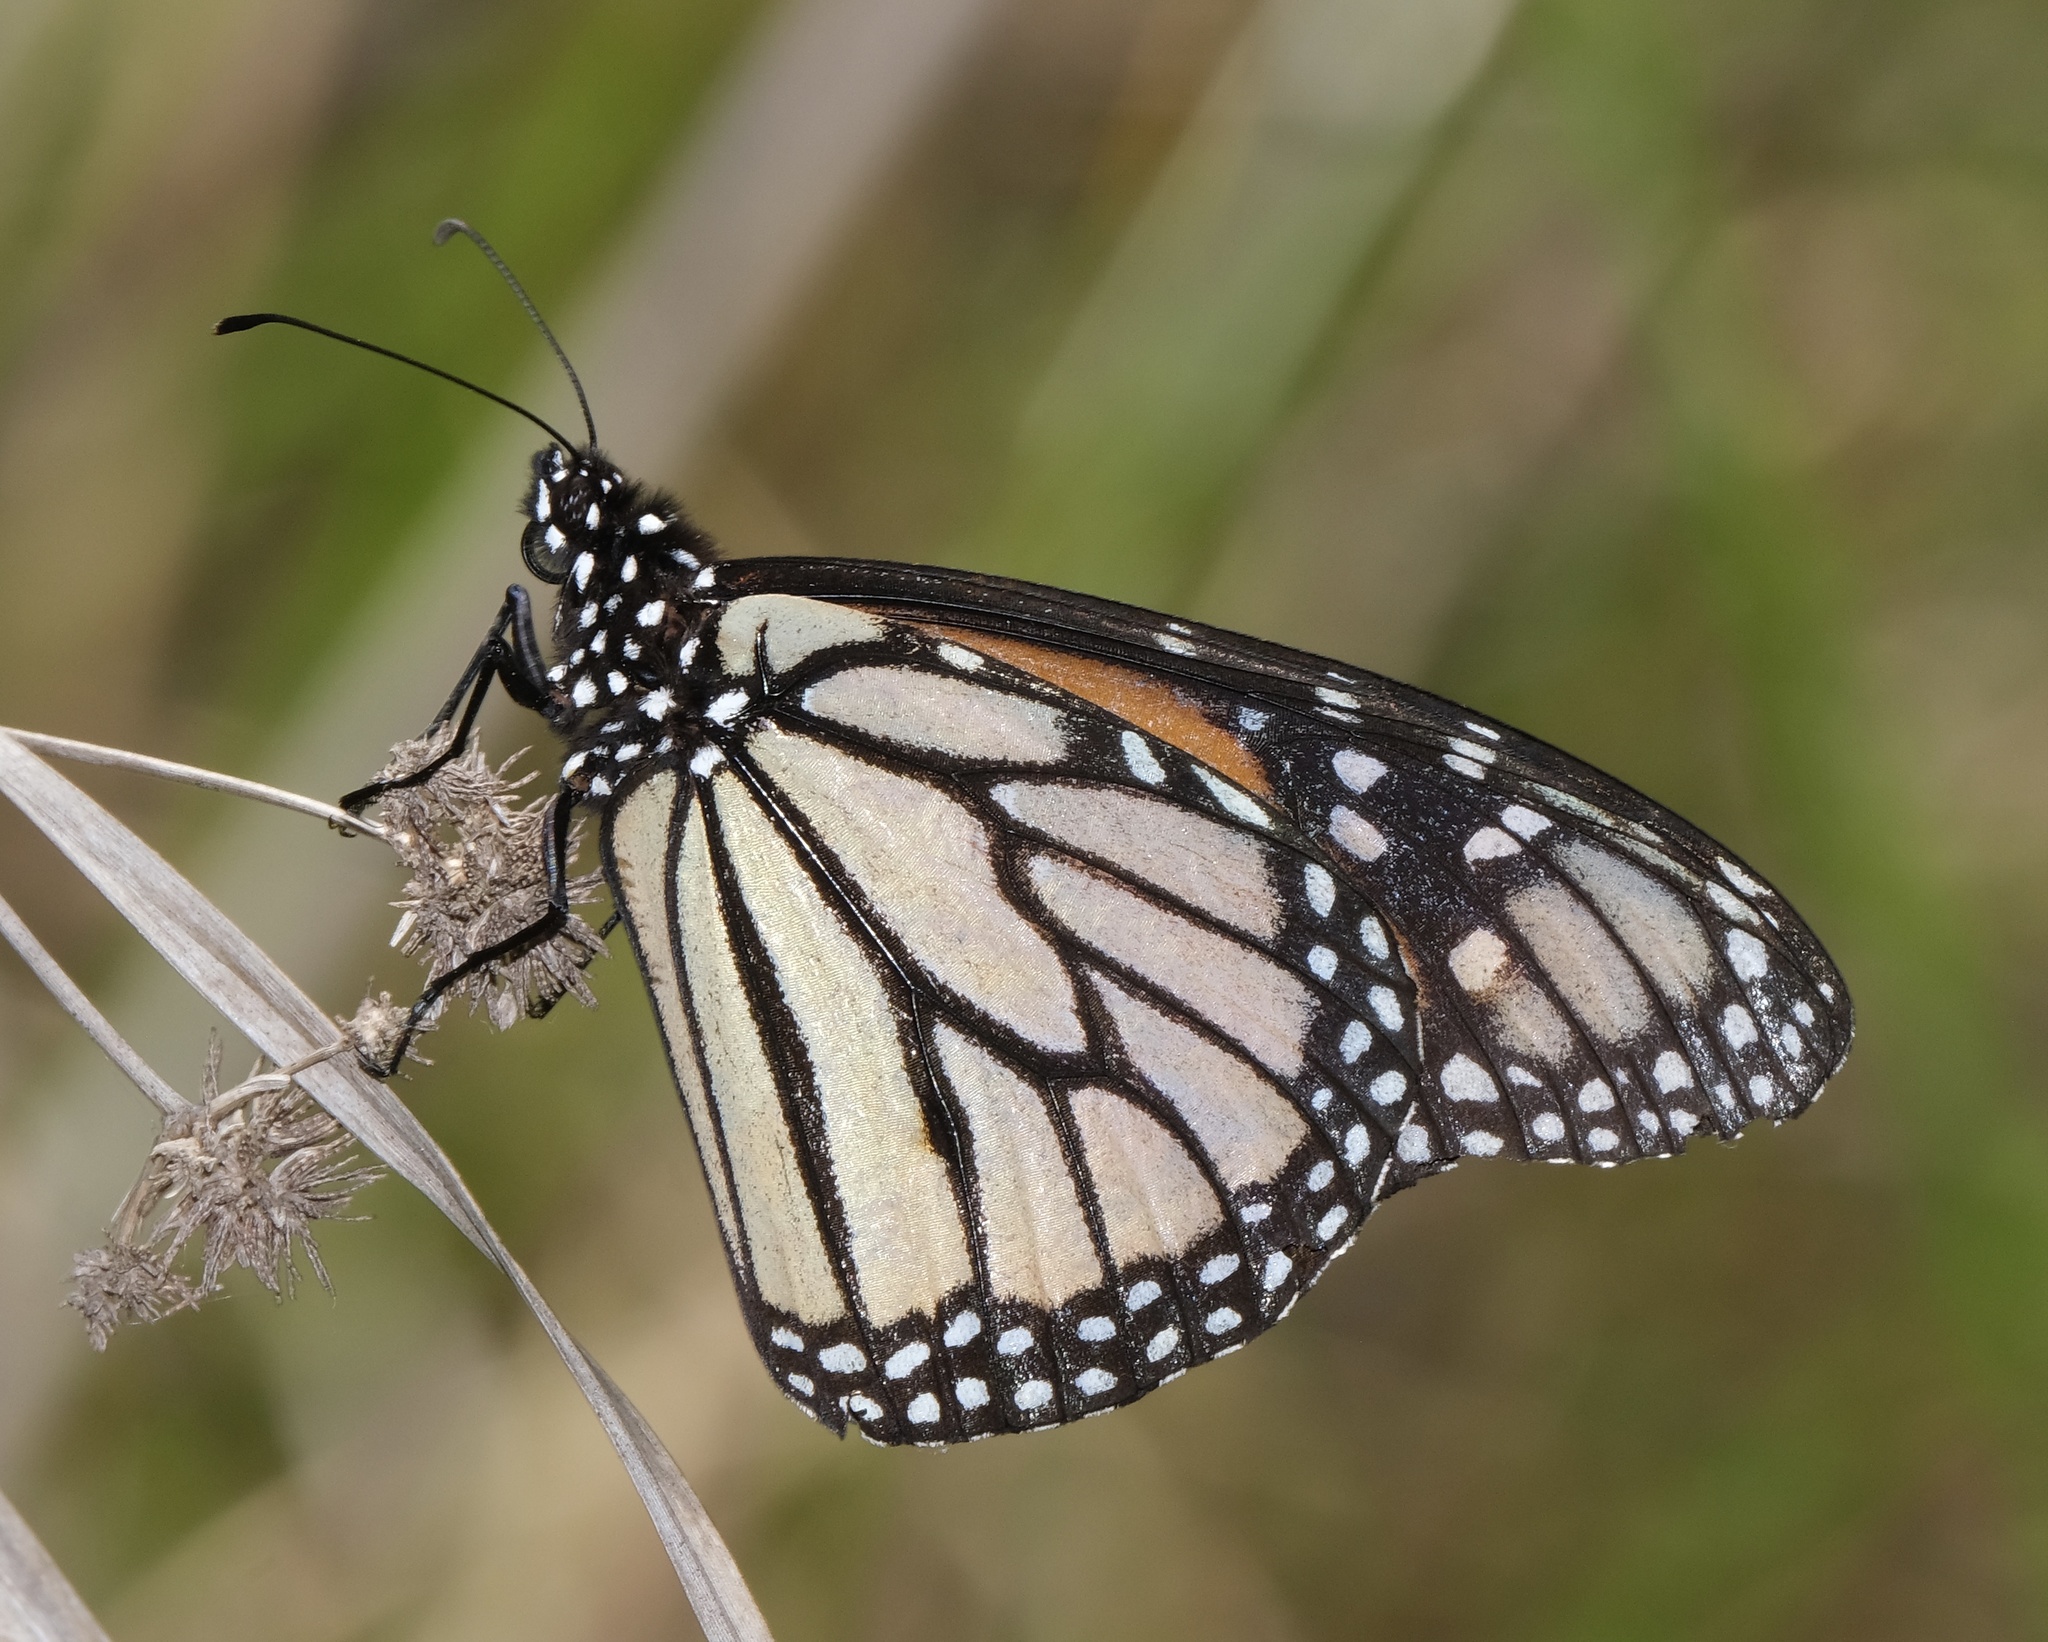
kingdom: Animalia
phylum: Arthropoda
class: Insecta
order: Lepidoptera
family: Nymphalidae
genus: Danaus
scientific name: Danaus plexippus
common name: Monarch
